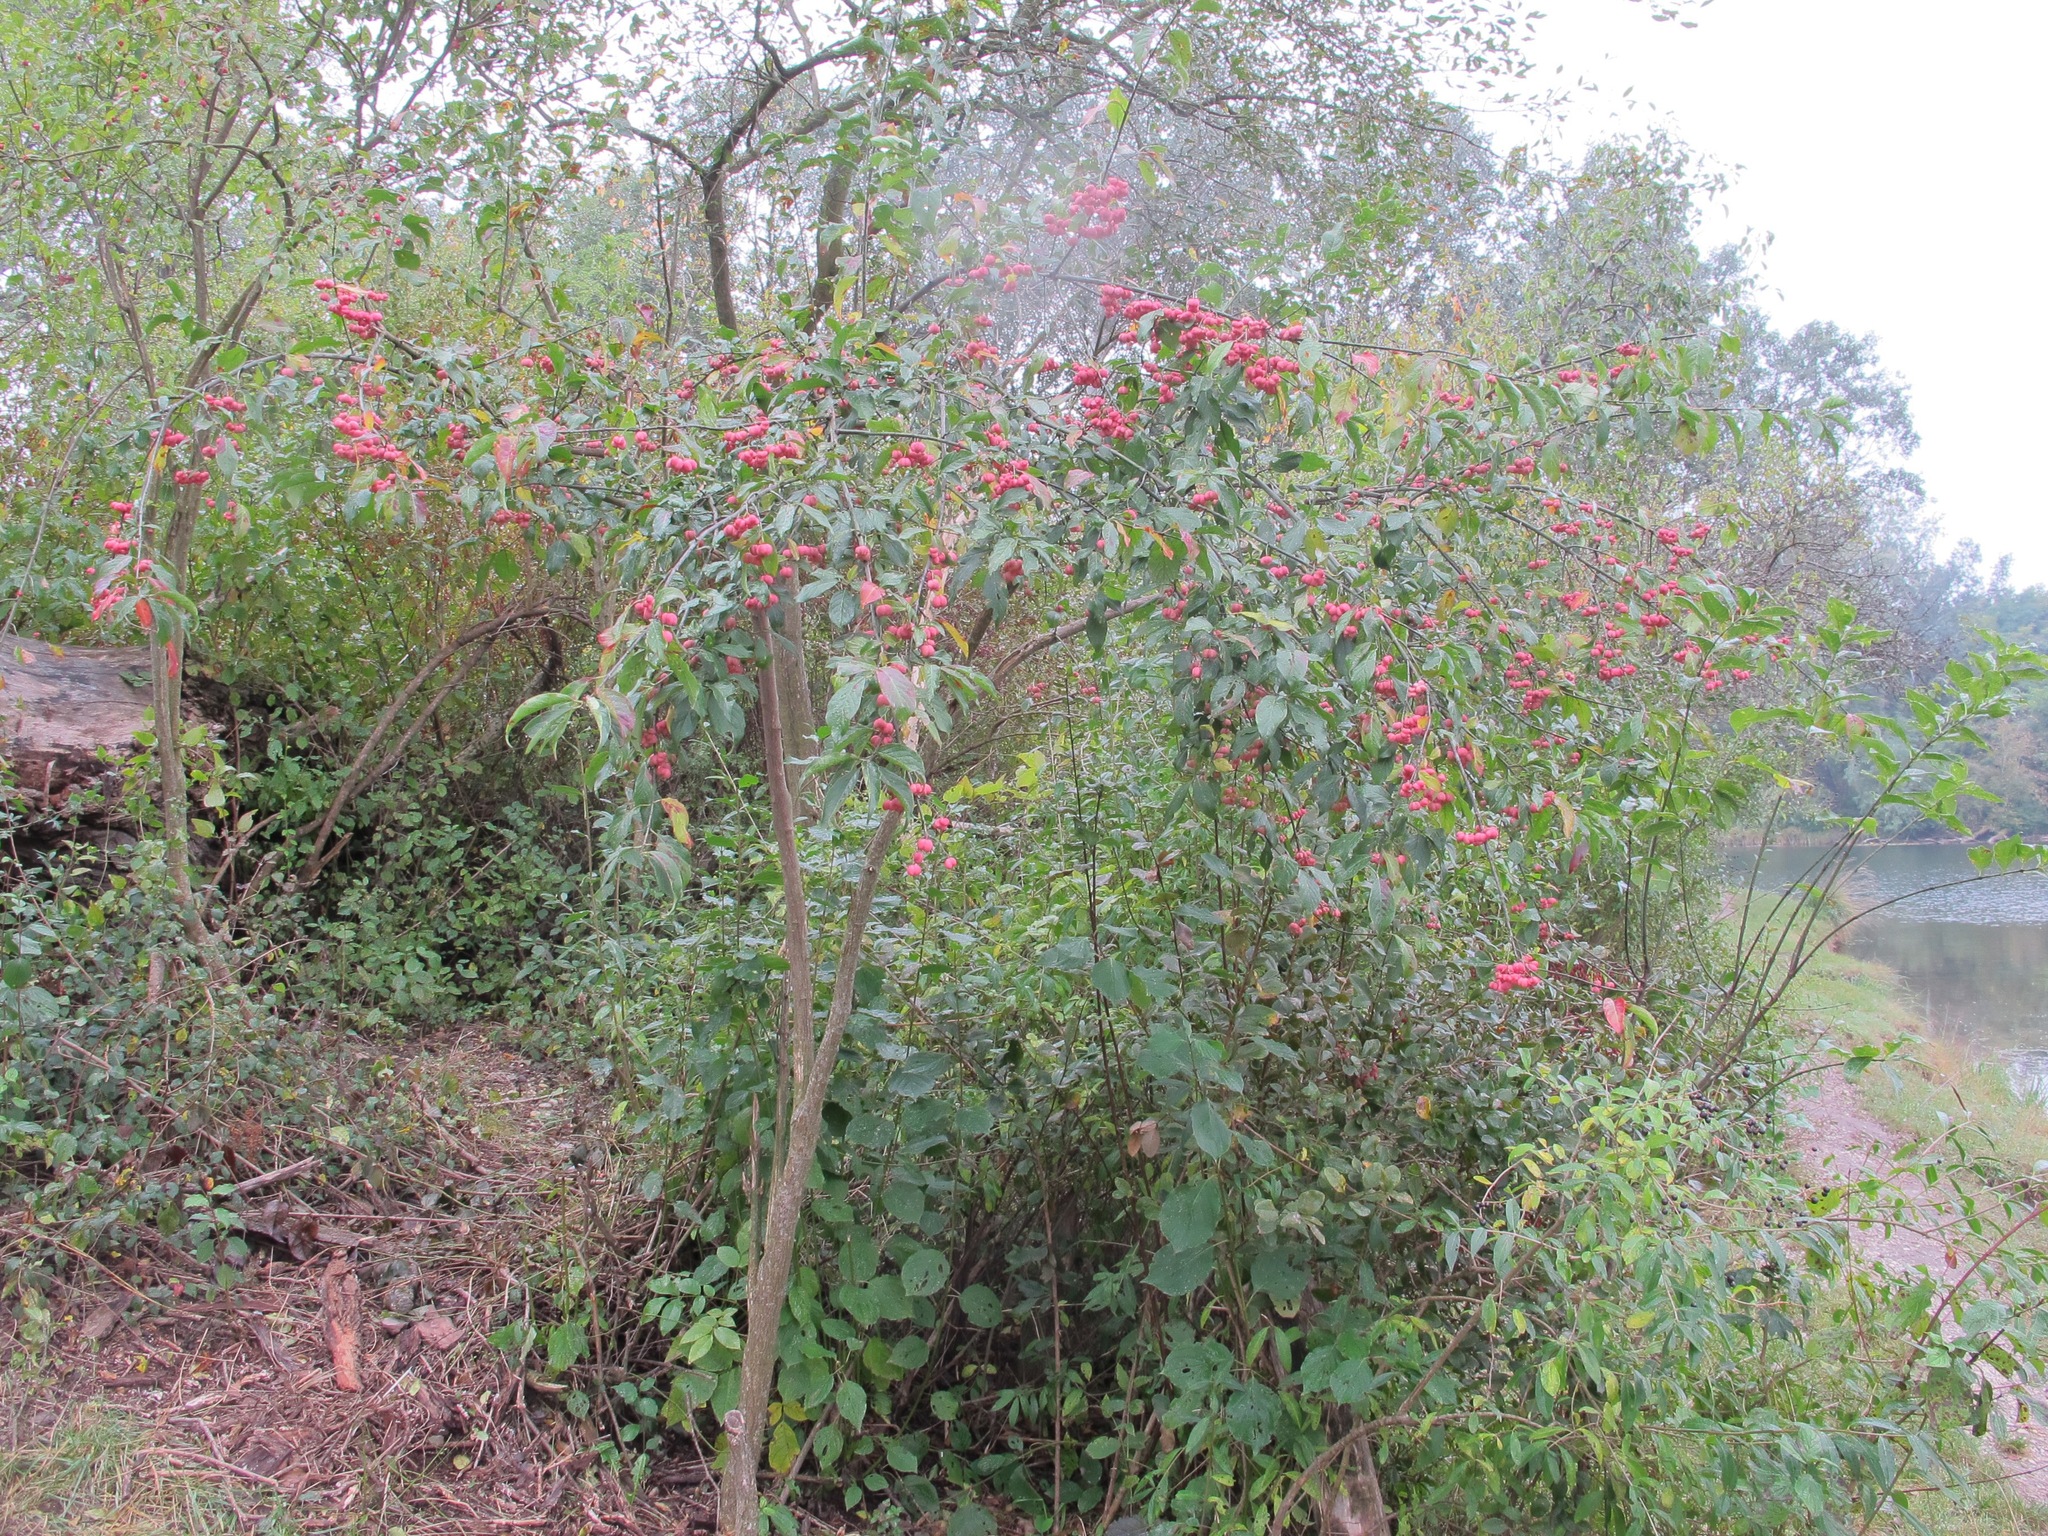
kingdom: Plantae
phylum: Tracheophyta
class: Magnoliopsida
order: Celastrales
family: Celastraceae
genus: Euonymus
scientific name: Euonymus europaeus
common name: Spindle
